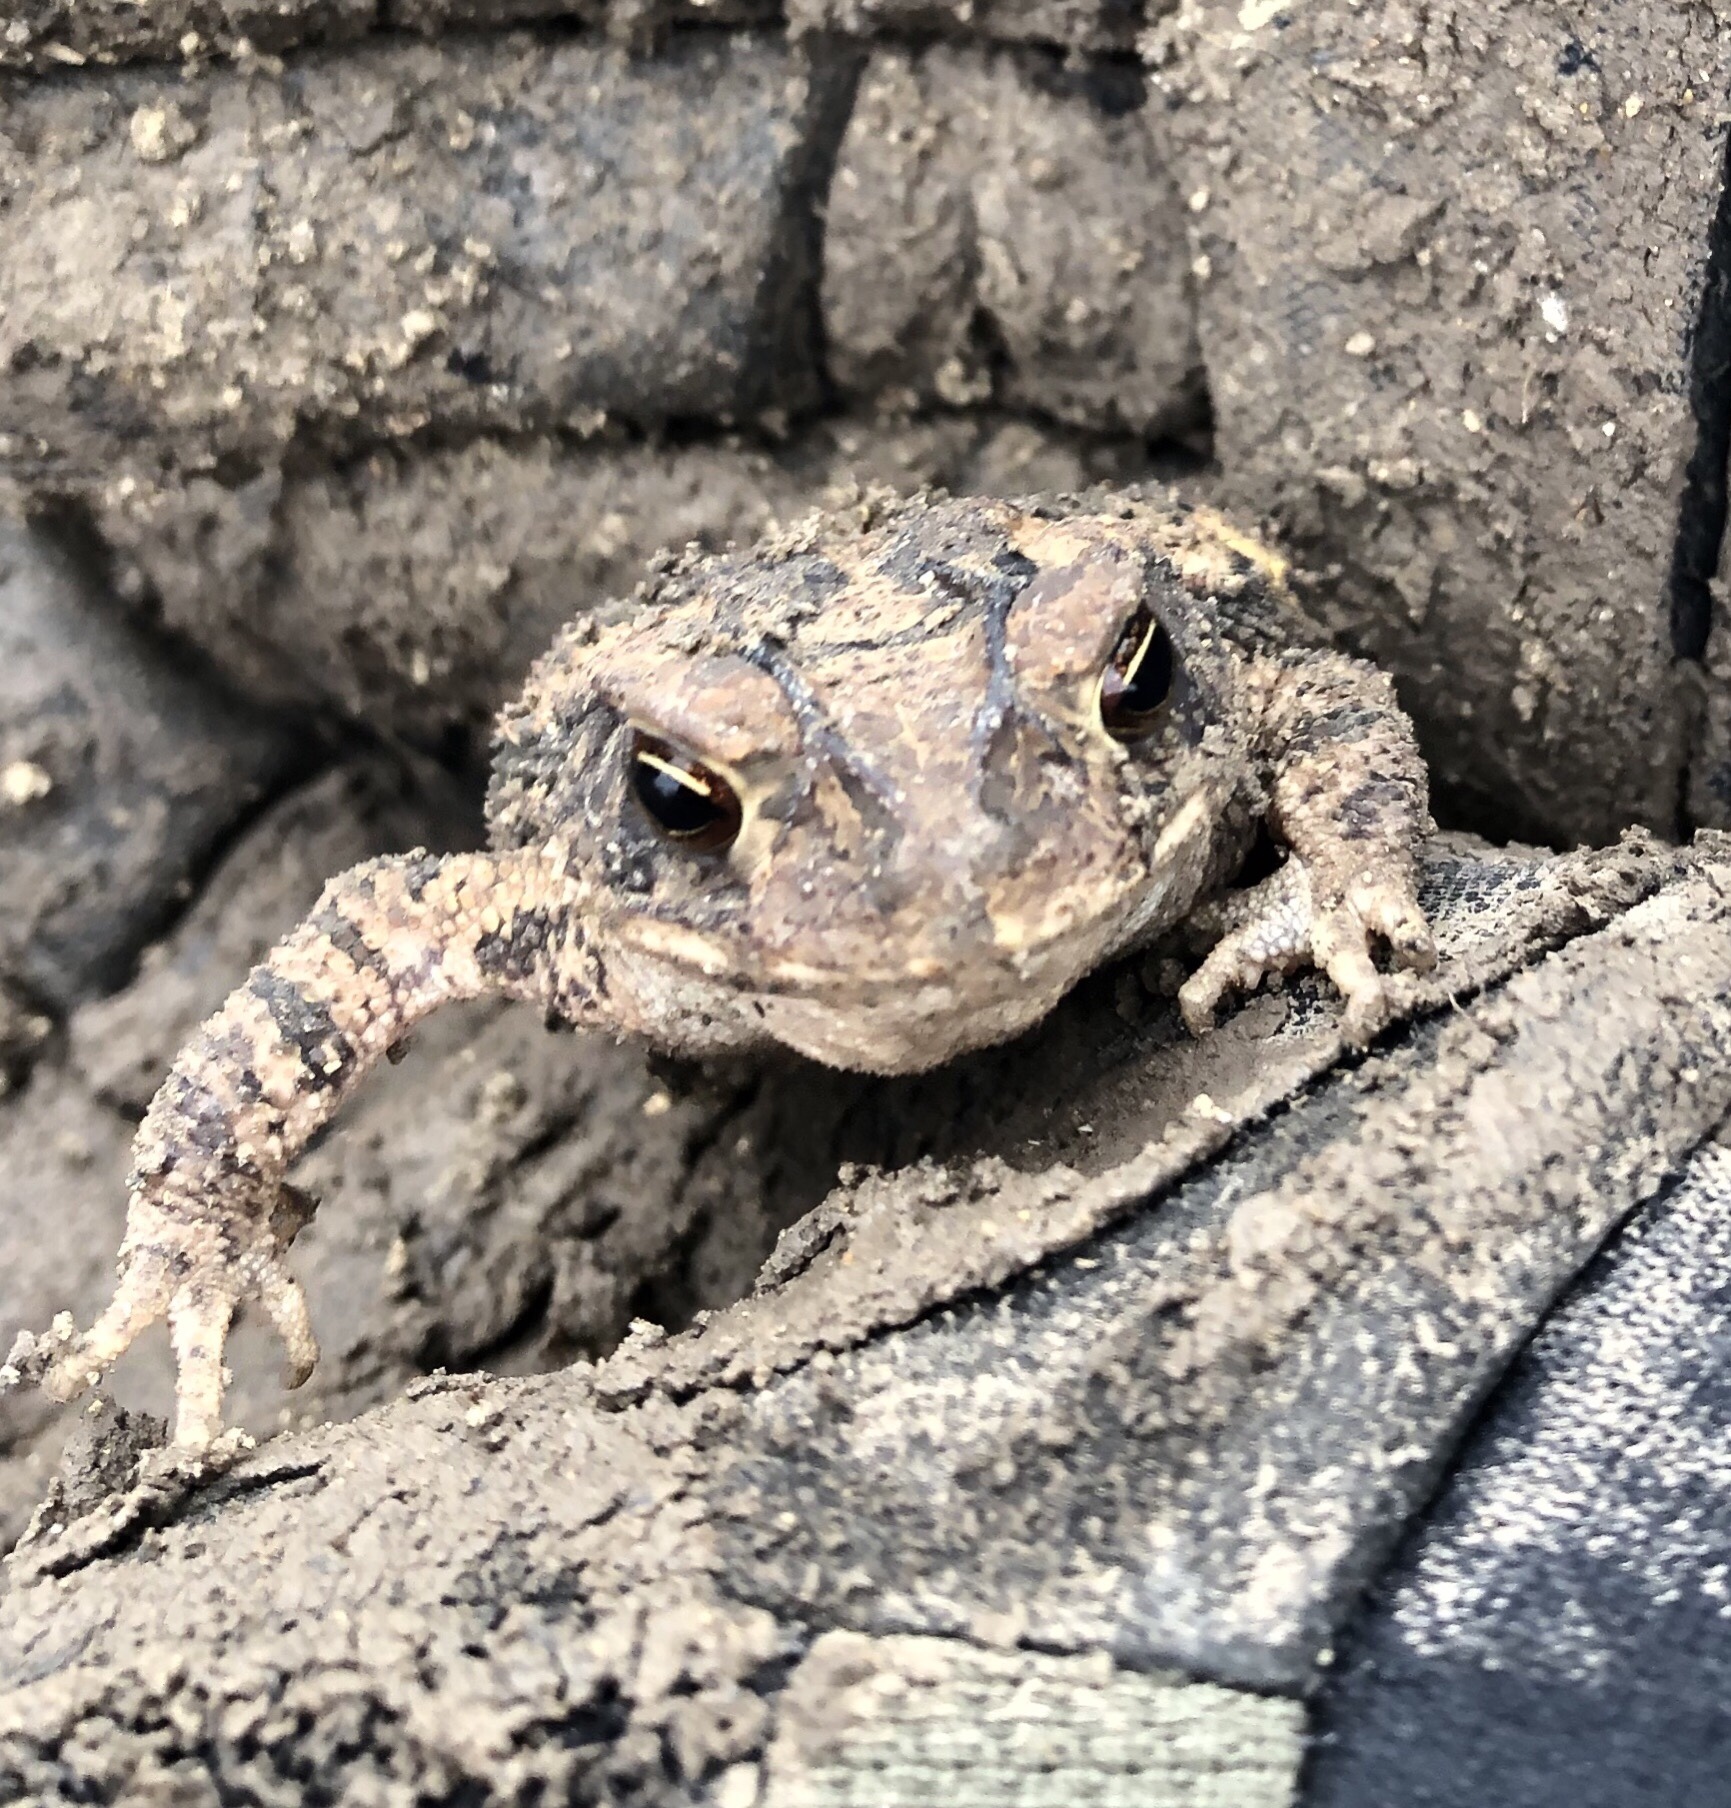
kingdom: Animalia
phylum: Chordata
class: Amphibia
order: Anura
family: Bufonidae
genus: Incilius
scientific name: Incilius nebulifer
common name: Gulf coast toad
